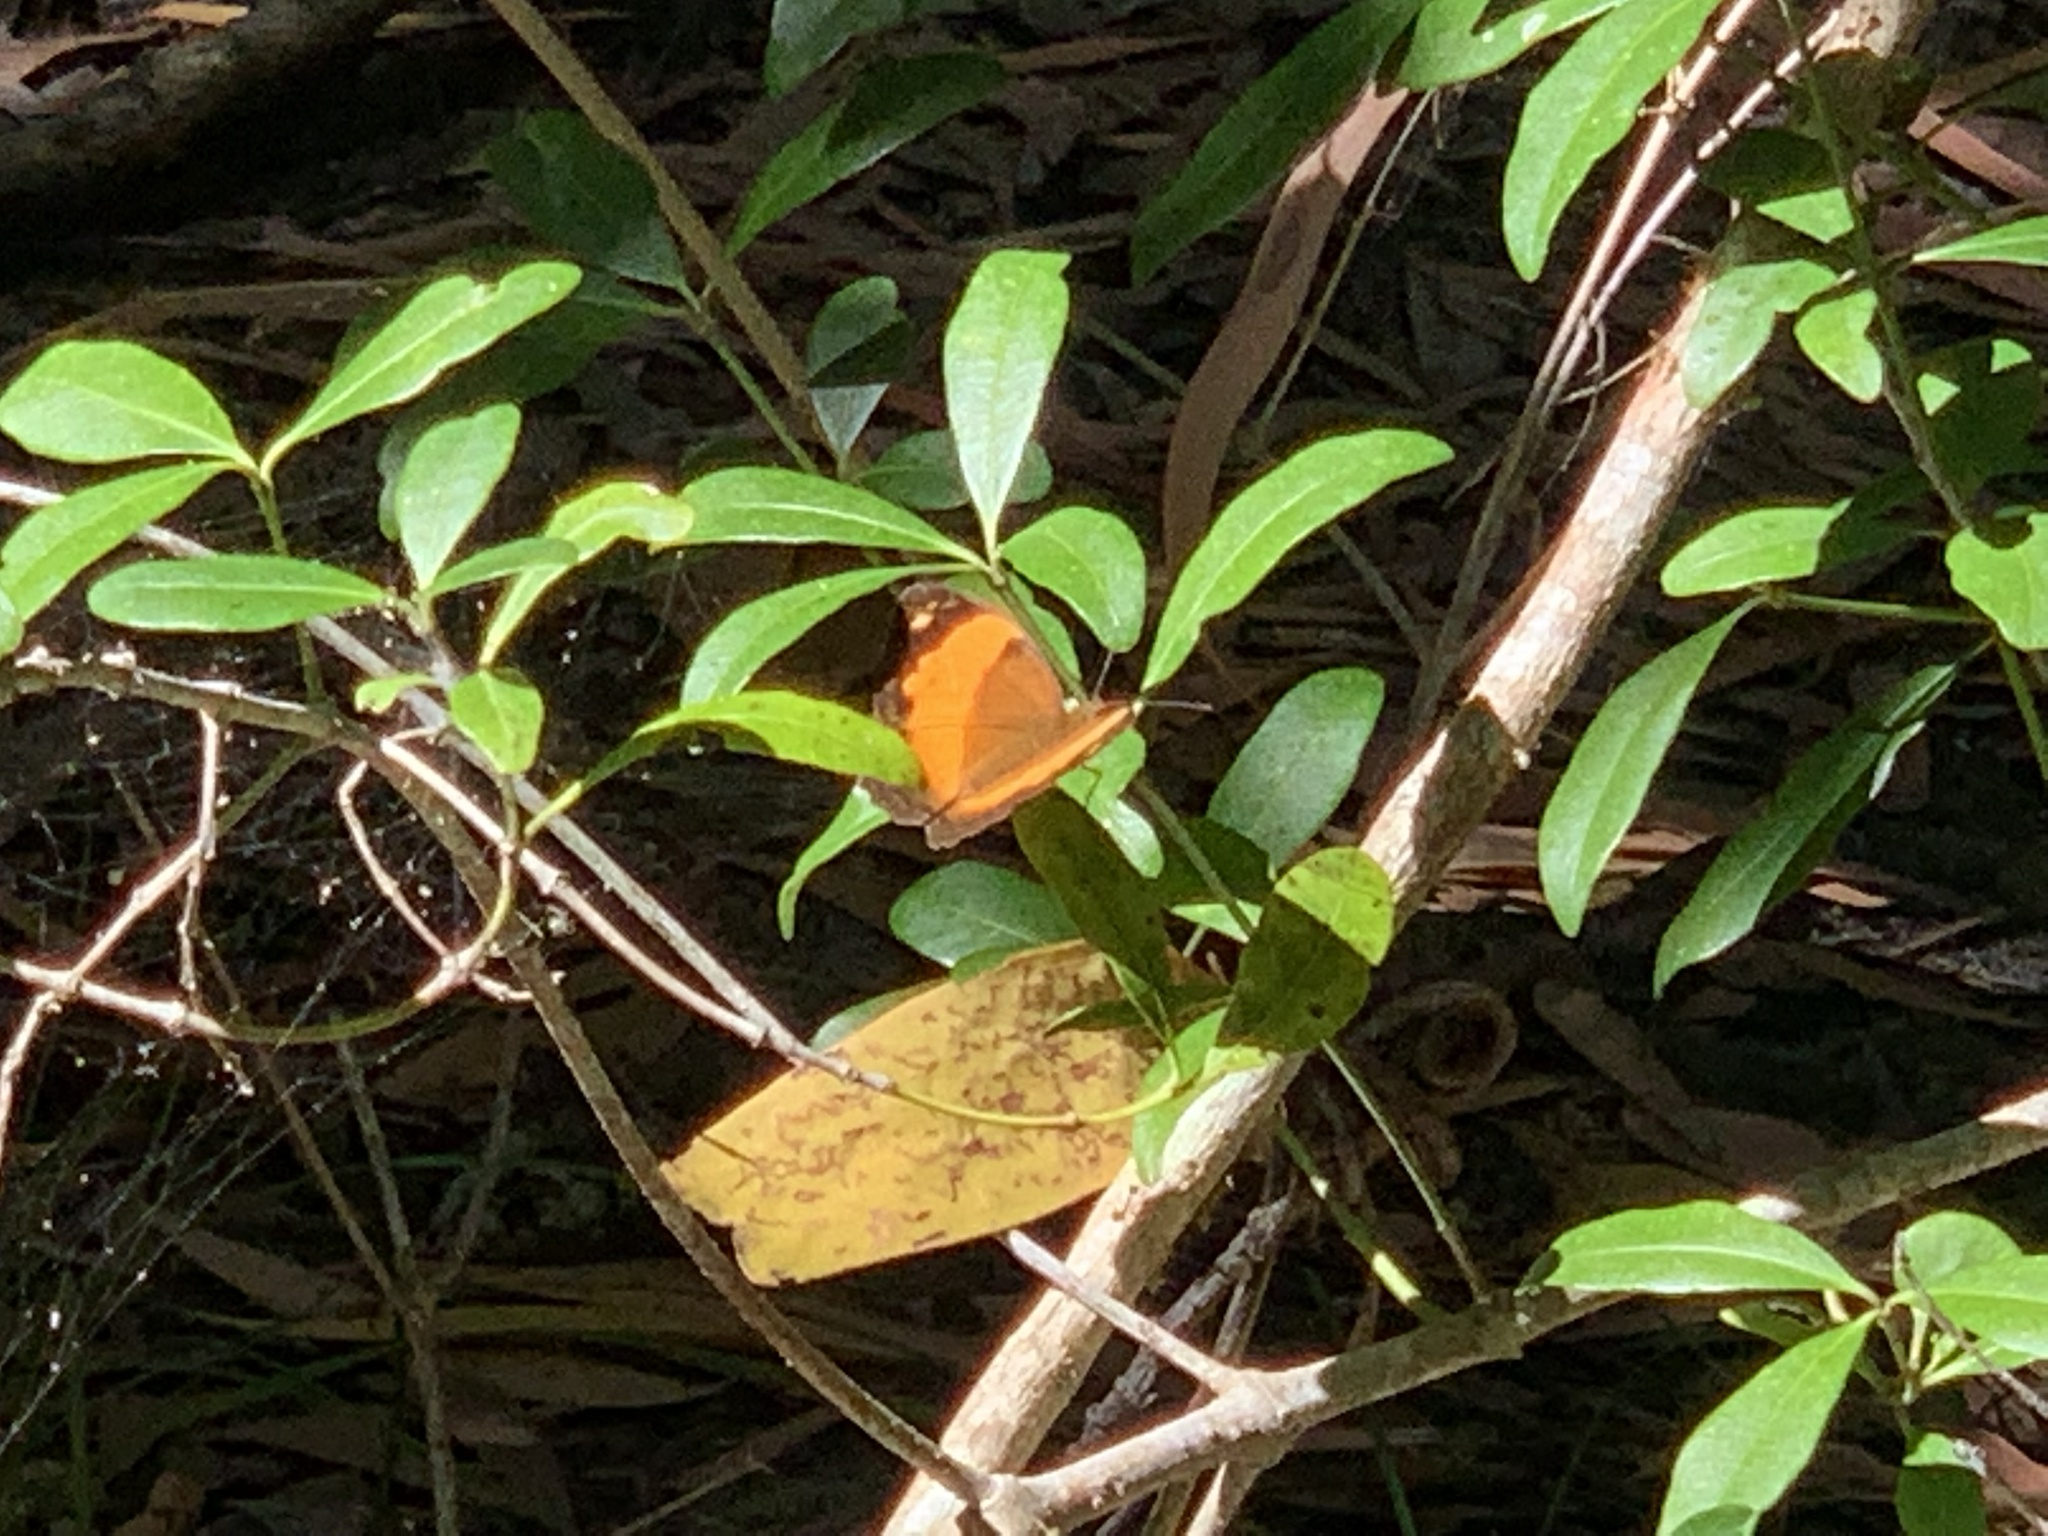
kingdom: Animalia
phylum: Arthropoda
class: Insecta
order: Lepidoptera
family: Nymphalidae
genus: Cupha
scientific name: Cupha prosope
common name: Bordered rustic
